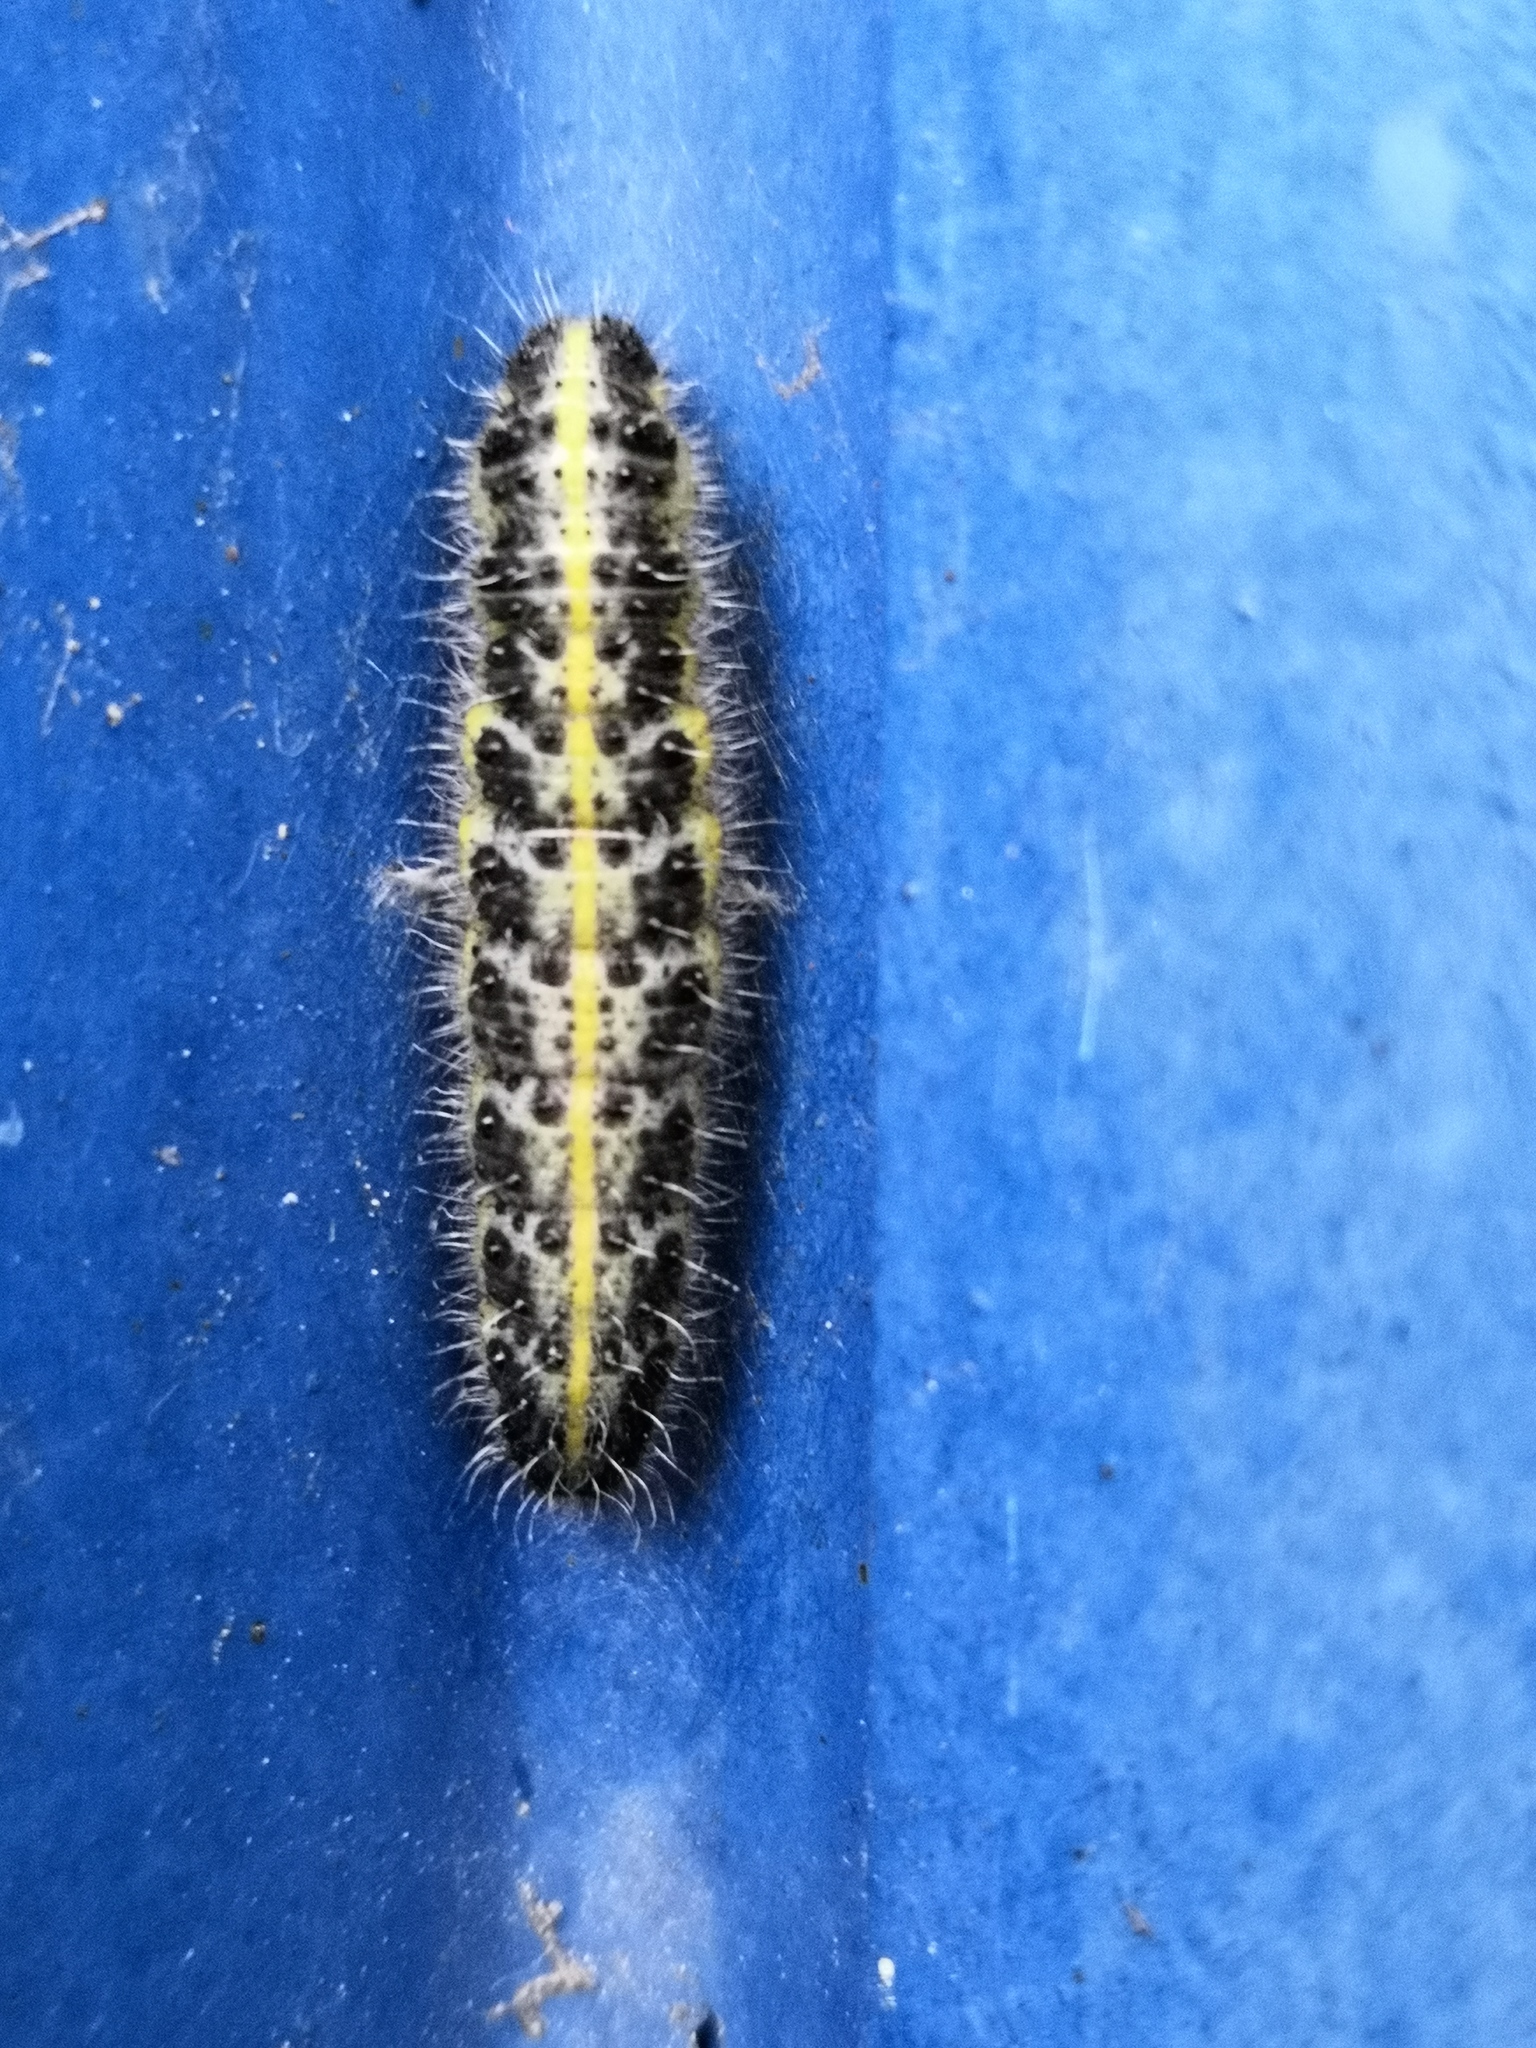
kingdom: Animalia
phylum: Arthropoda
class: Insecta
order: Lepidoptera
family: Pieridae
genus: Pieris
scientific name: Pieris brassicae
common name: Large white
